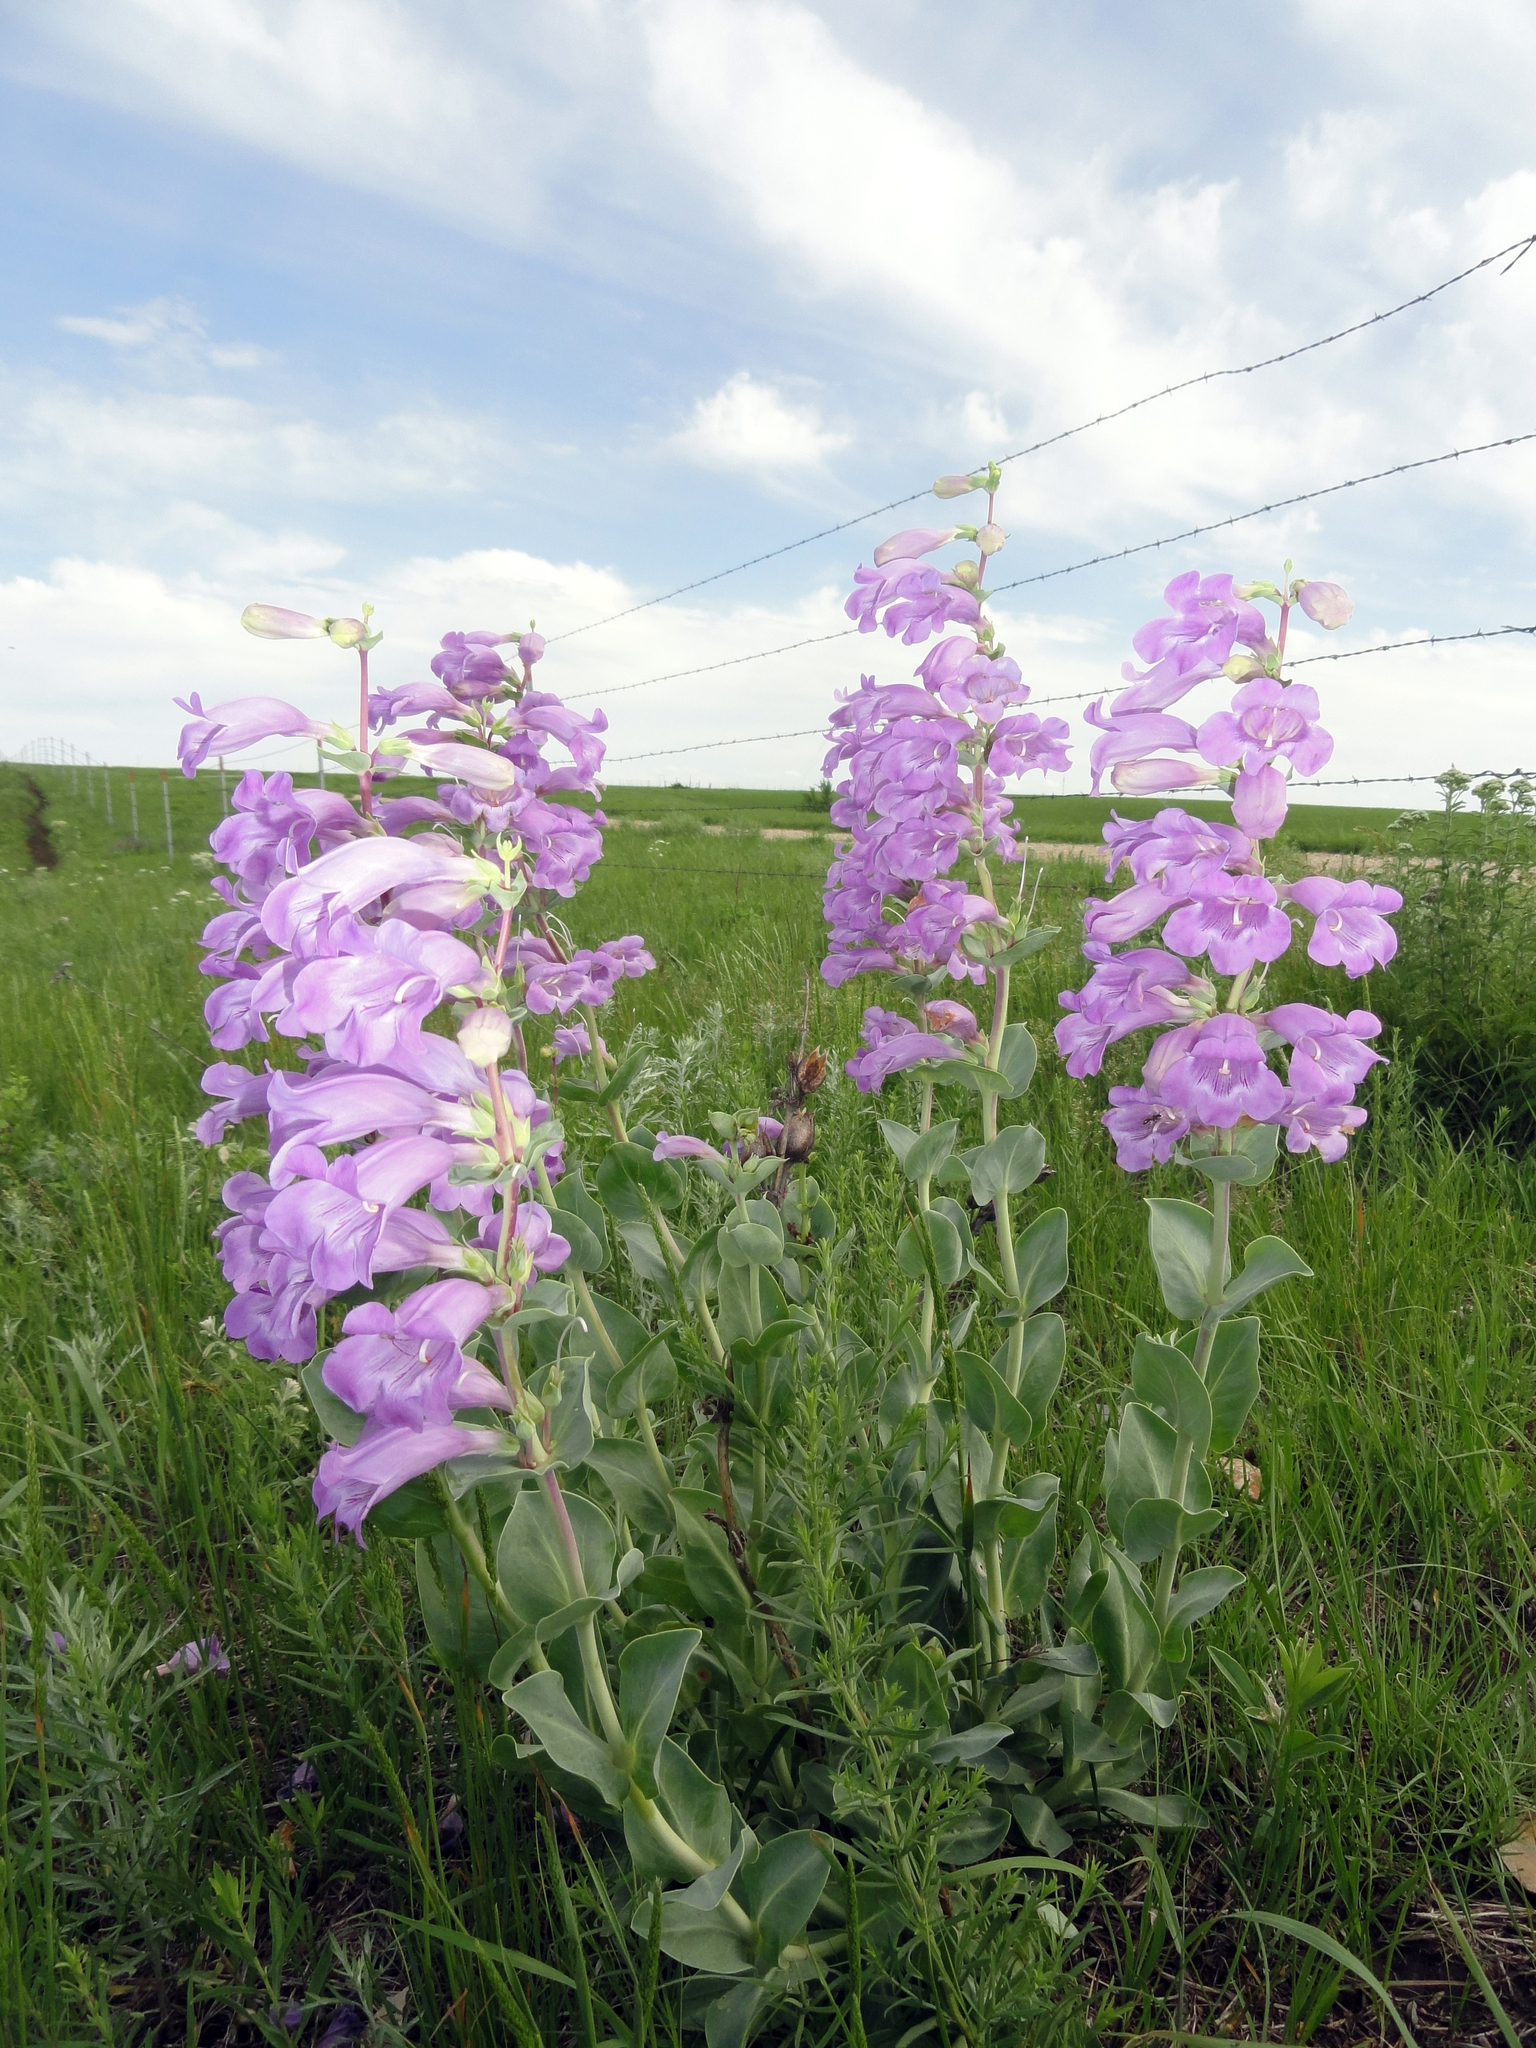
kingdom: Plantae
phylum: Tracheophyta
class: Magnoliopsida
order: Lamiales
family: Plantaginaceae
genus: Penstemon
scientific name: Penstemon
